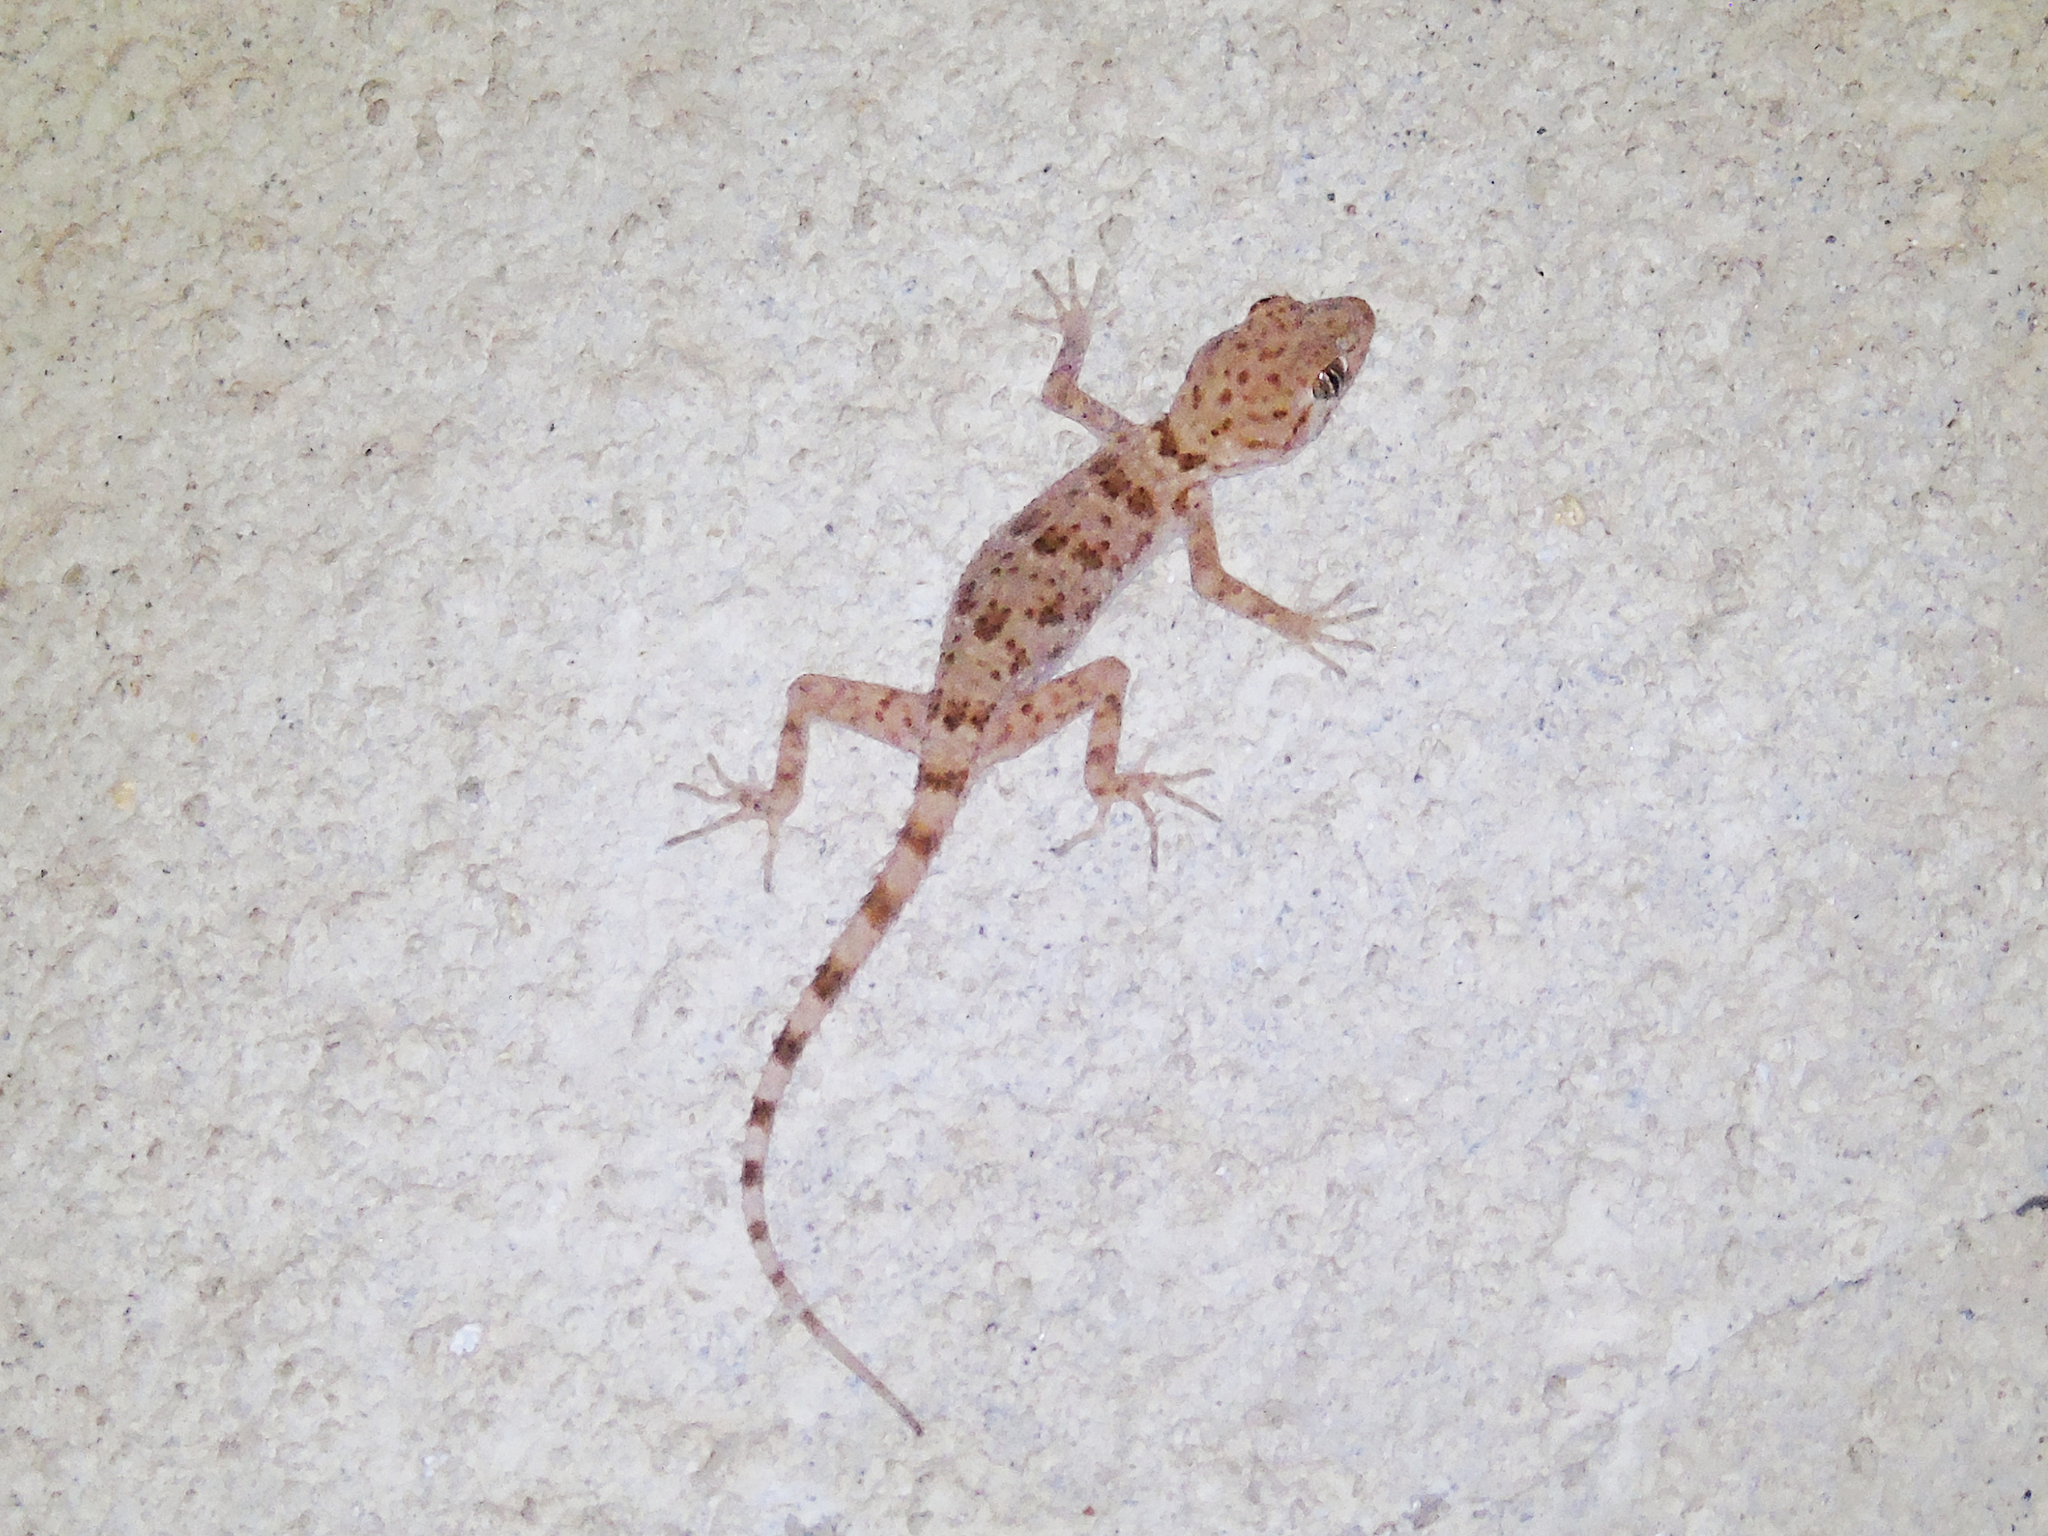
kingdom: Animalia
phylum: Chordata
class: Squamata
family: Gekkonidae
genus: Tenuidactylus
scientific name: Tenuidactylus bogdanovi
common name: Bogdanov’s thin-toed gecko
